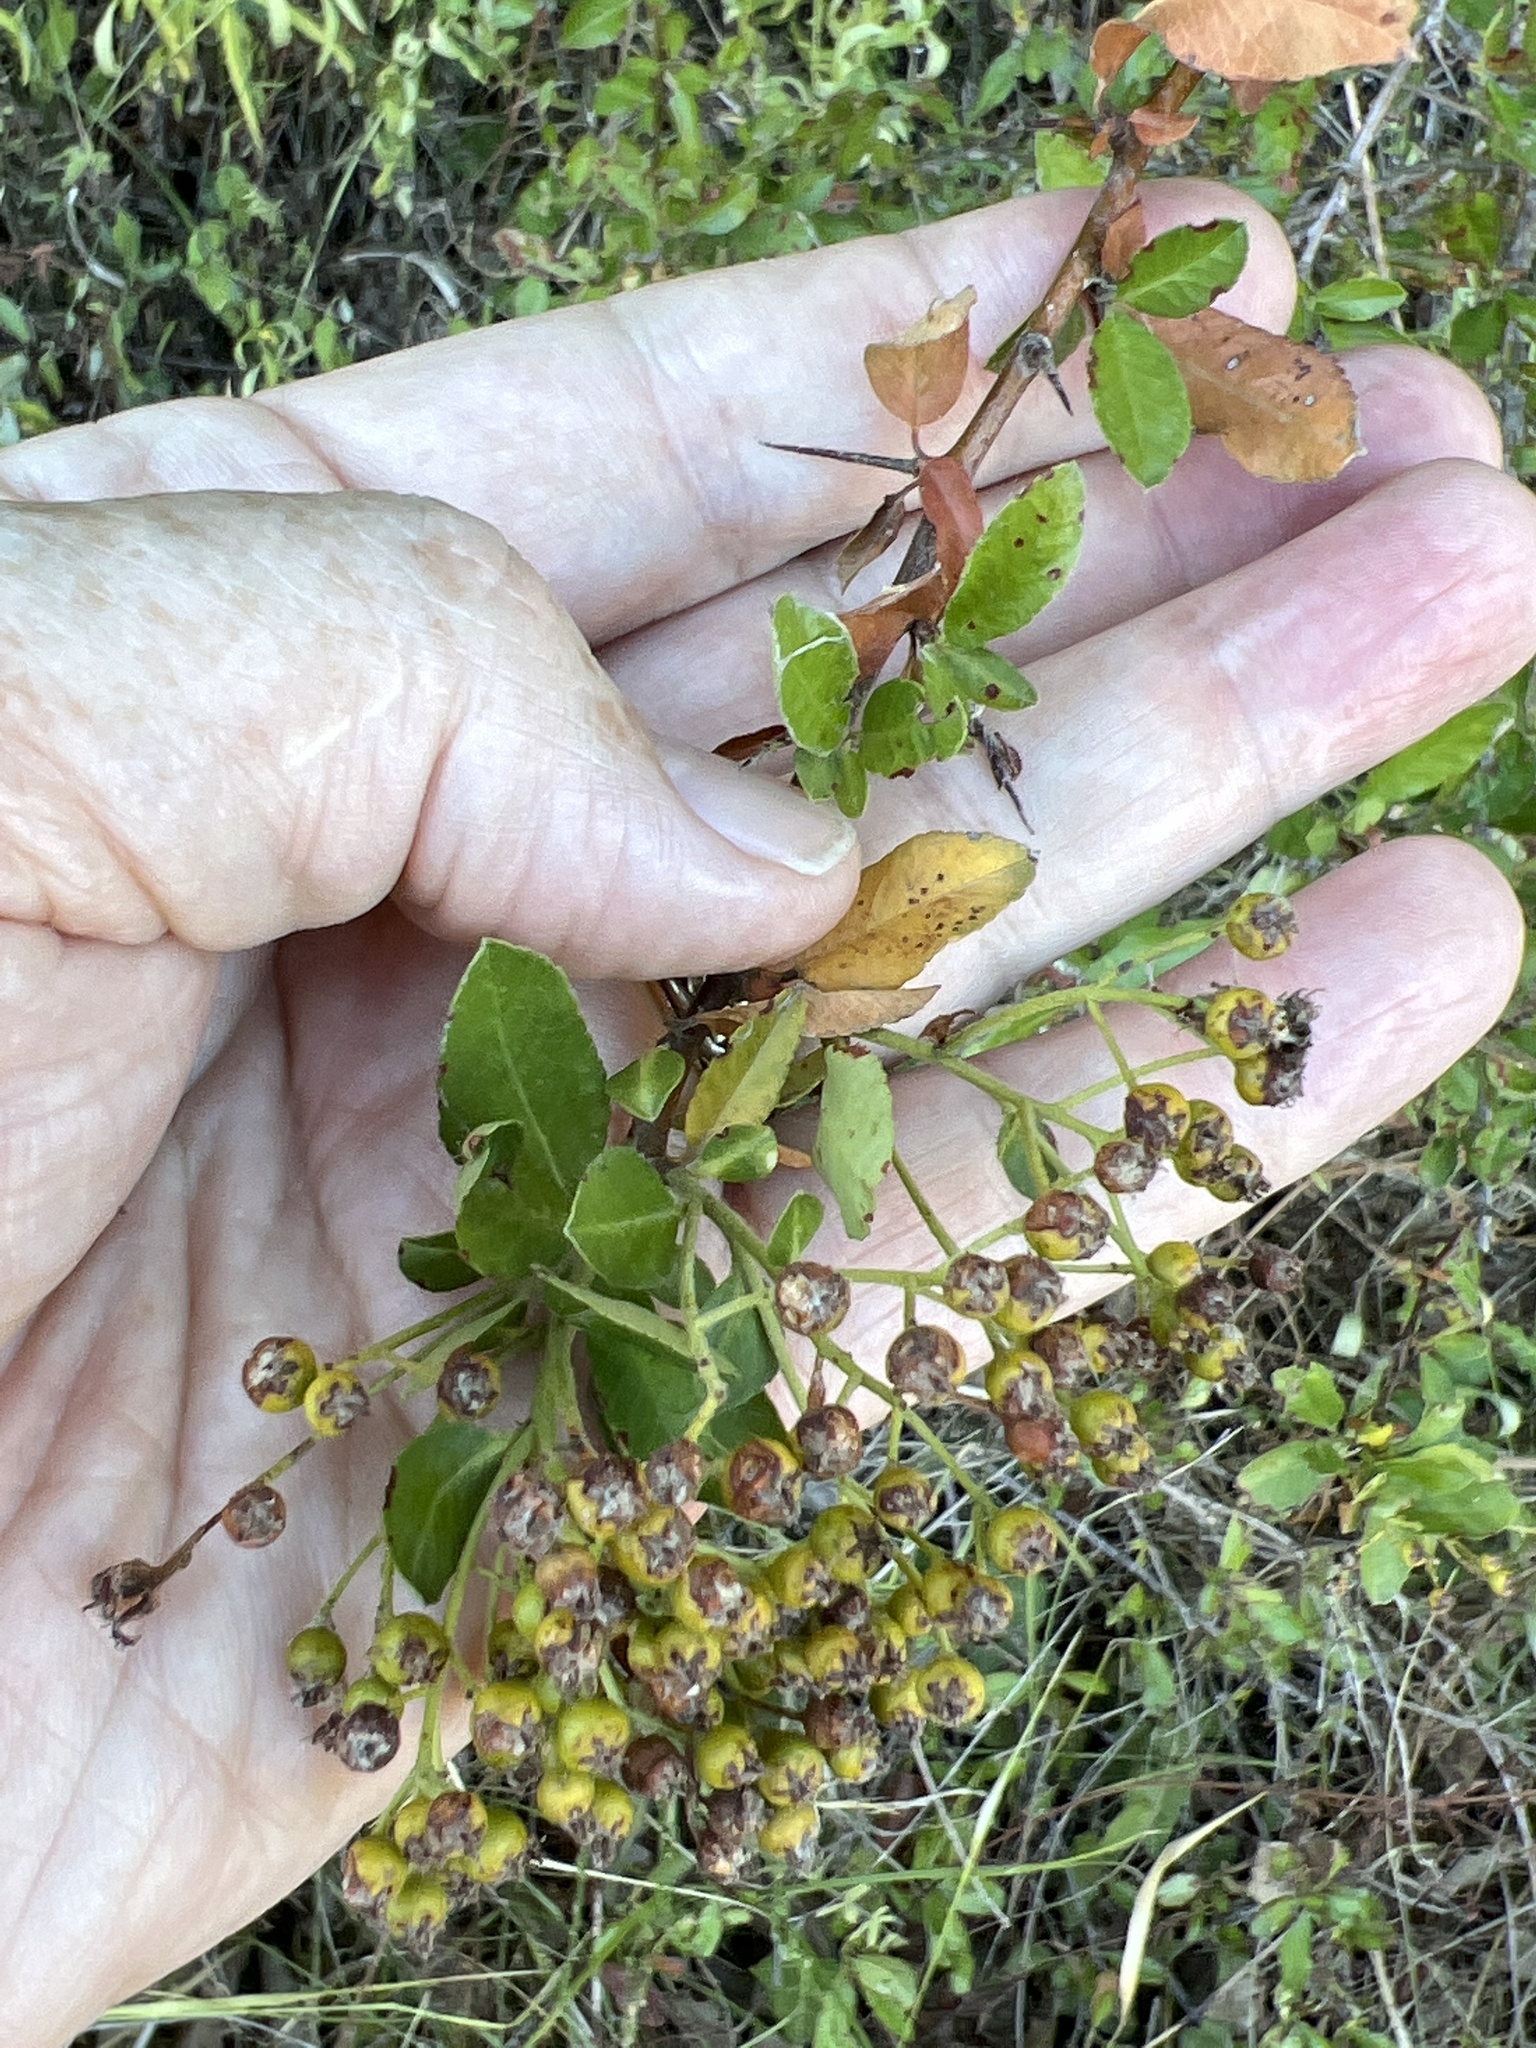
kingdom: Plantae
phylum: Tracheophyta
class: Magnoliopsida
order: Rosales
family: Rosaceae
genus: Pyracantha
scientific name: Pyracantha coccinea
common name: Firethorn
